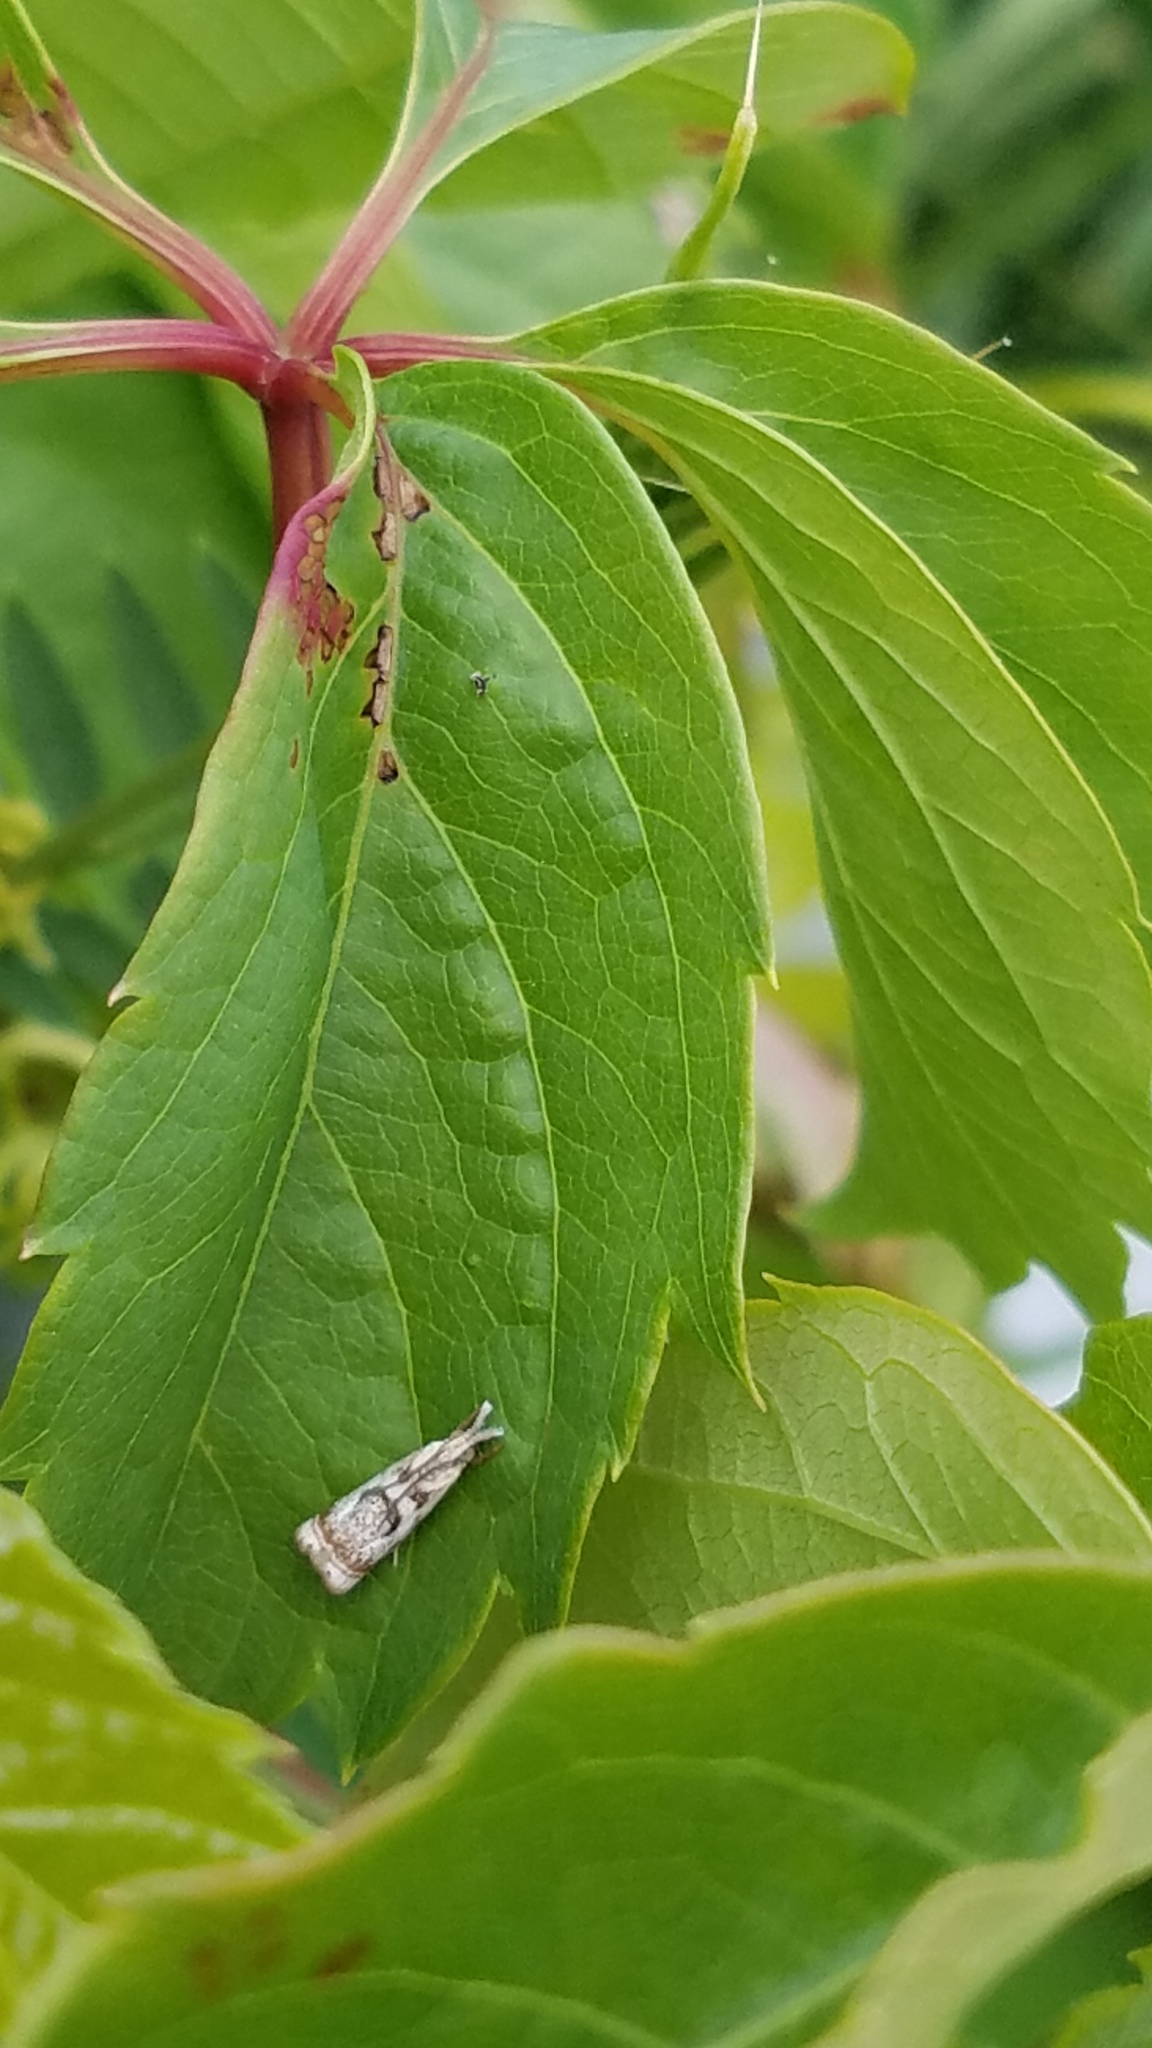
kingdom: Animalia
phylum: Arthropoda
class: Insecta
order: Lepidoptera
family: Crambidae
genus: Microcrambus
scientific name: Microcrambus elegans
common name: Elegant grass-veneer
